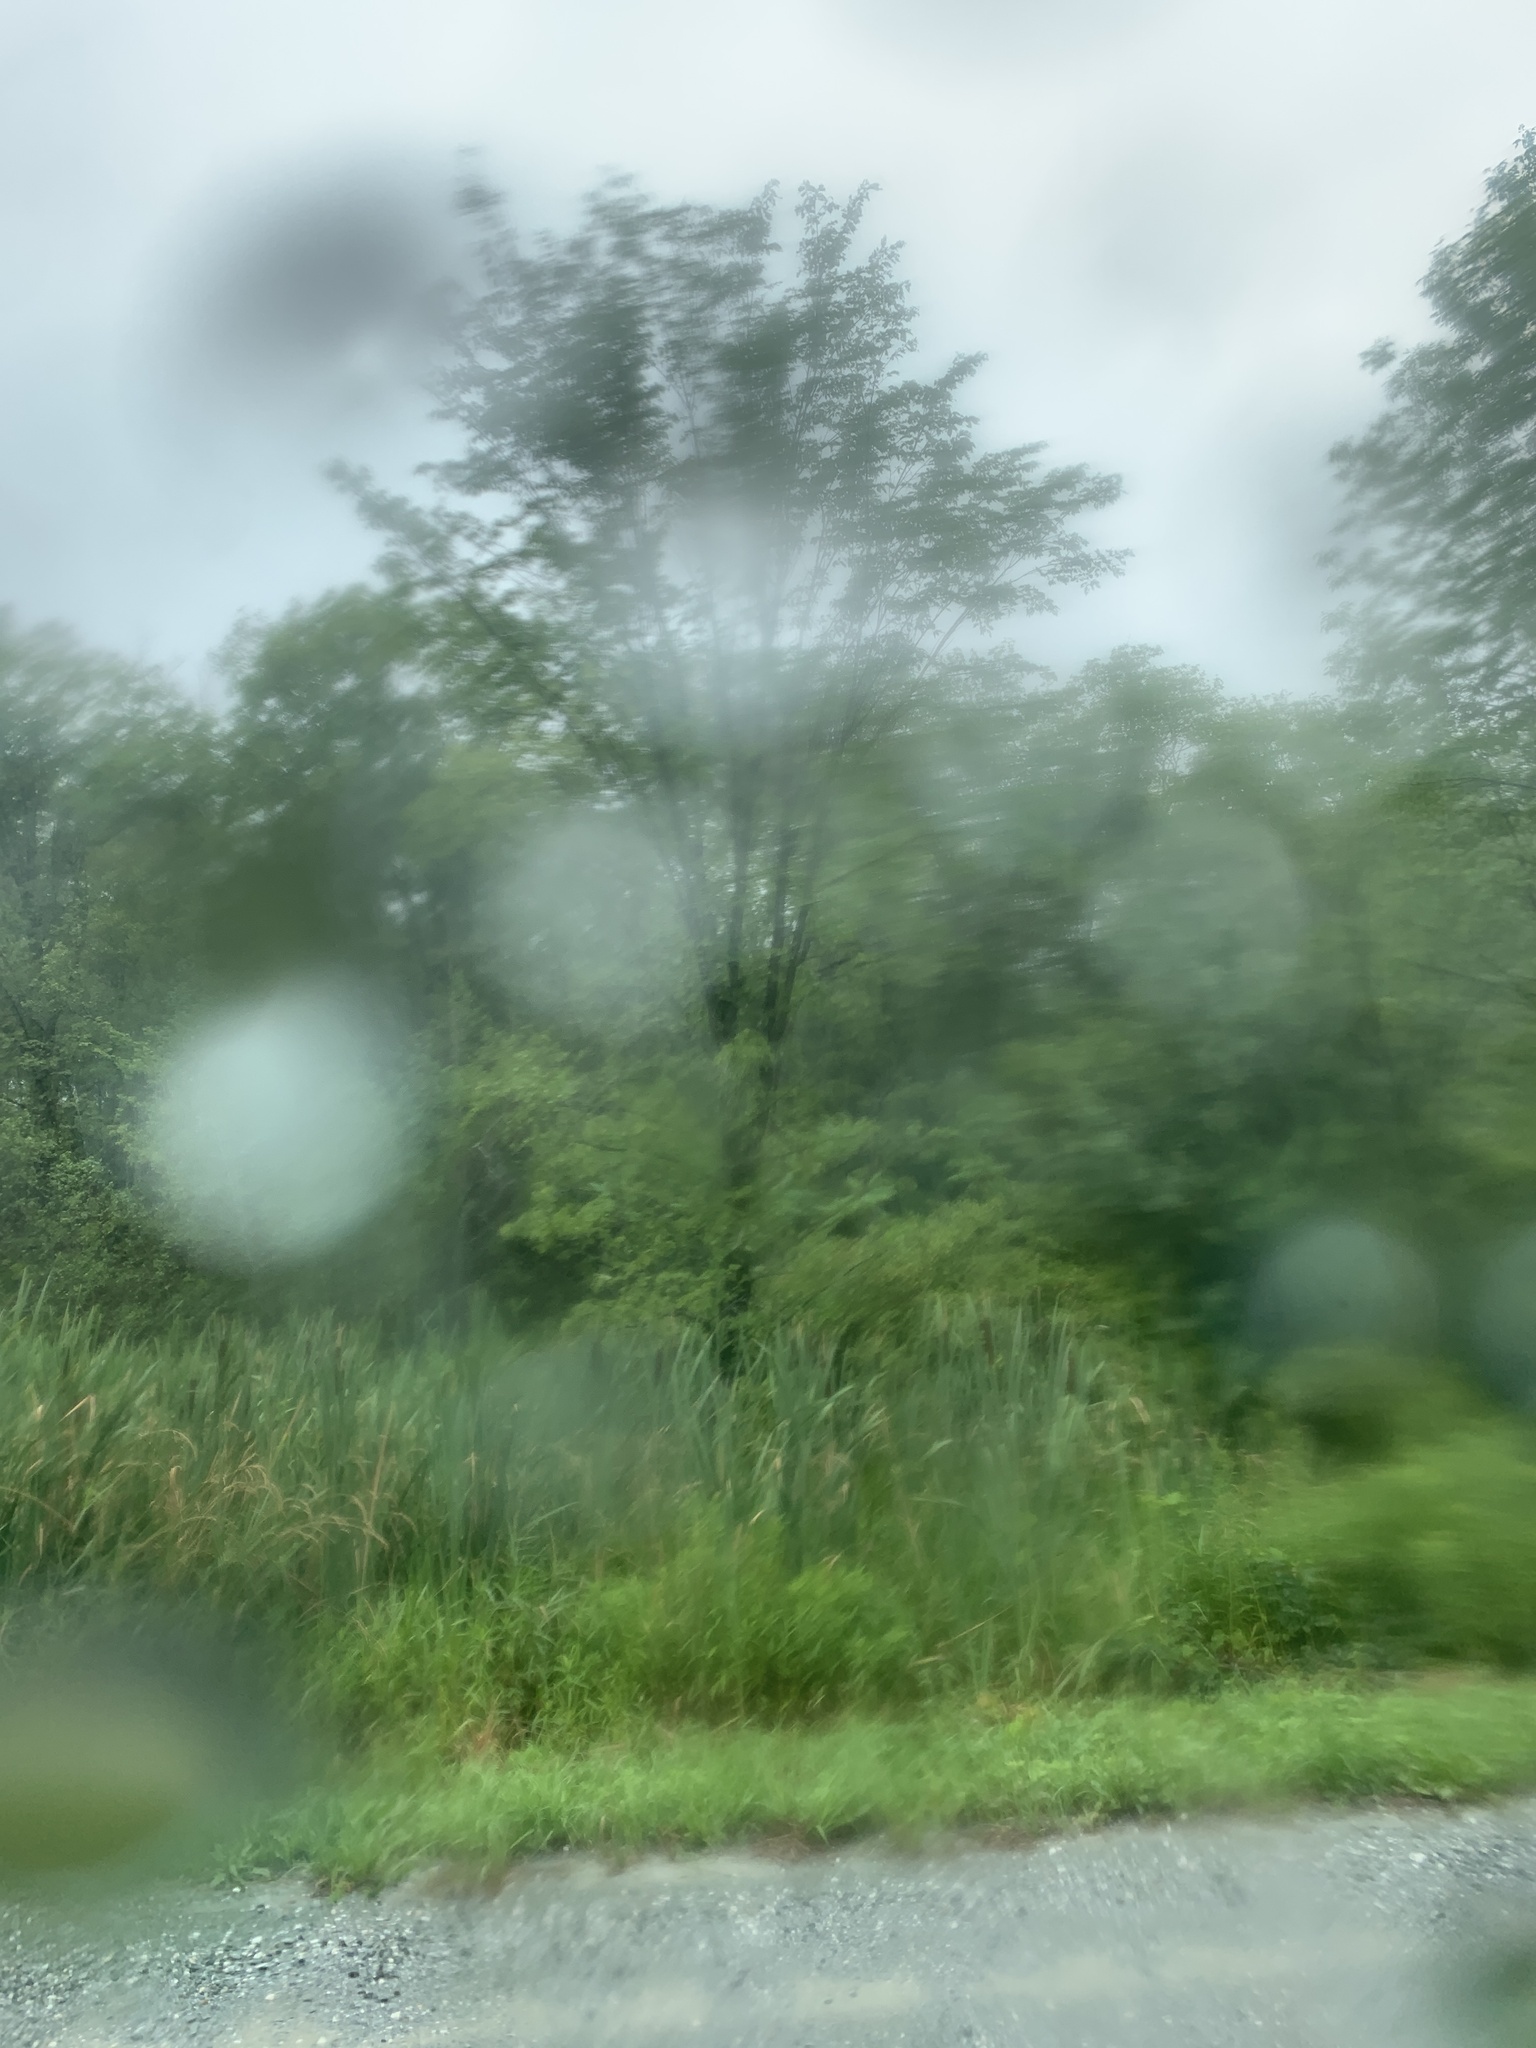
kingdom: Plantae
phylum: Tracheophyta
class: Magnoliopsida
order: Rosales
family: Ulmaceae
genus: Ulmus
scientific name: Ulmus americana
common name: American elm
